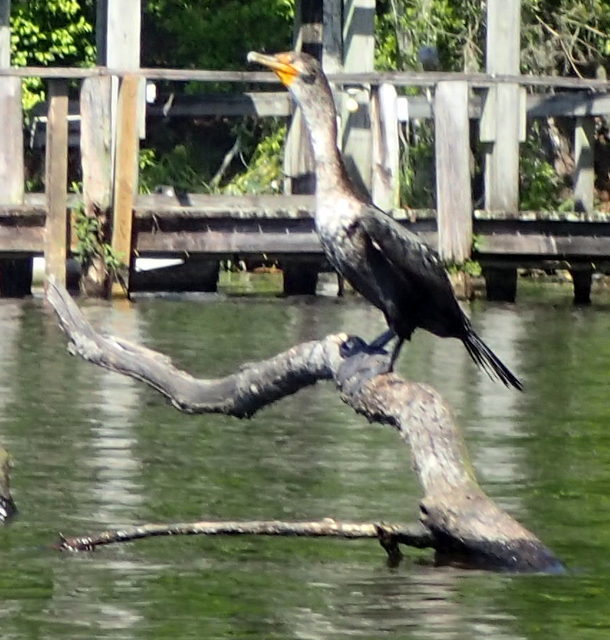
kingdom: Animalia
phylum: Chordata
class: Aves
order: Suliformes
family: Phalacrocoracidae
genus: Phalacrocorax
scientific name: Phalacrocorax auritus
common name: Double-crested cormorant
